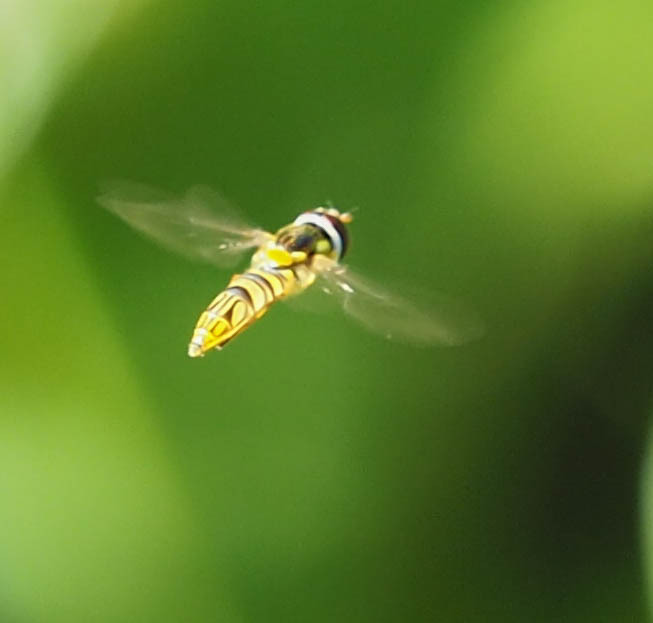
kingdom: Animalia
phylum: Arthropoda
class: Insecta
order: Diptera
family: Syrphidae
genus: Allograpta
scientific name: Allograpta obliqua
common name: Common oblique syrphid
